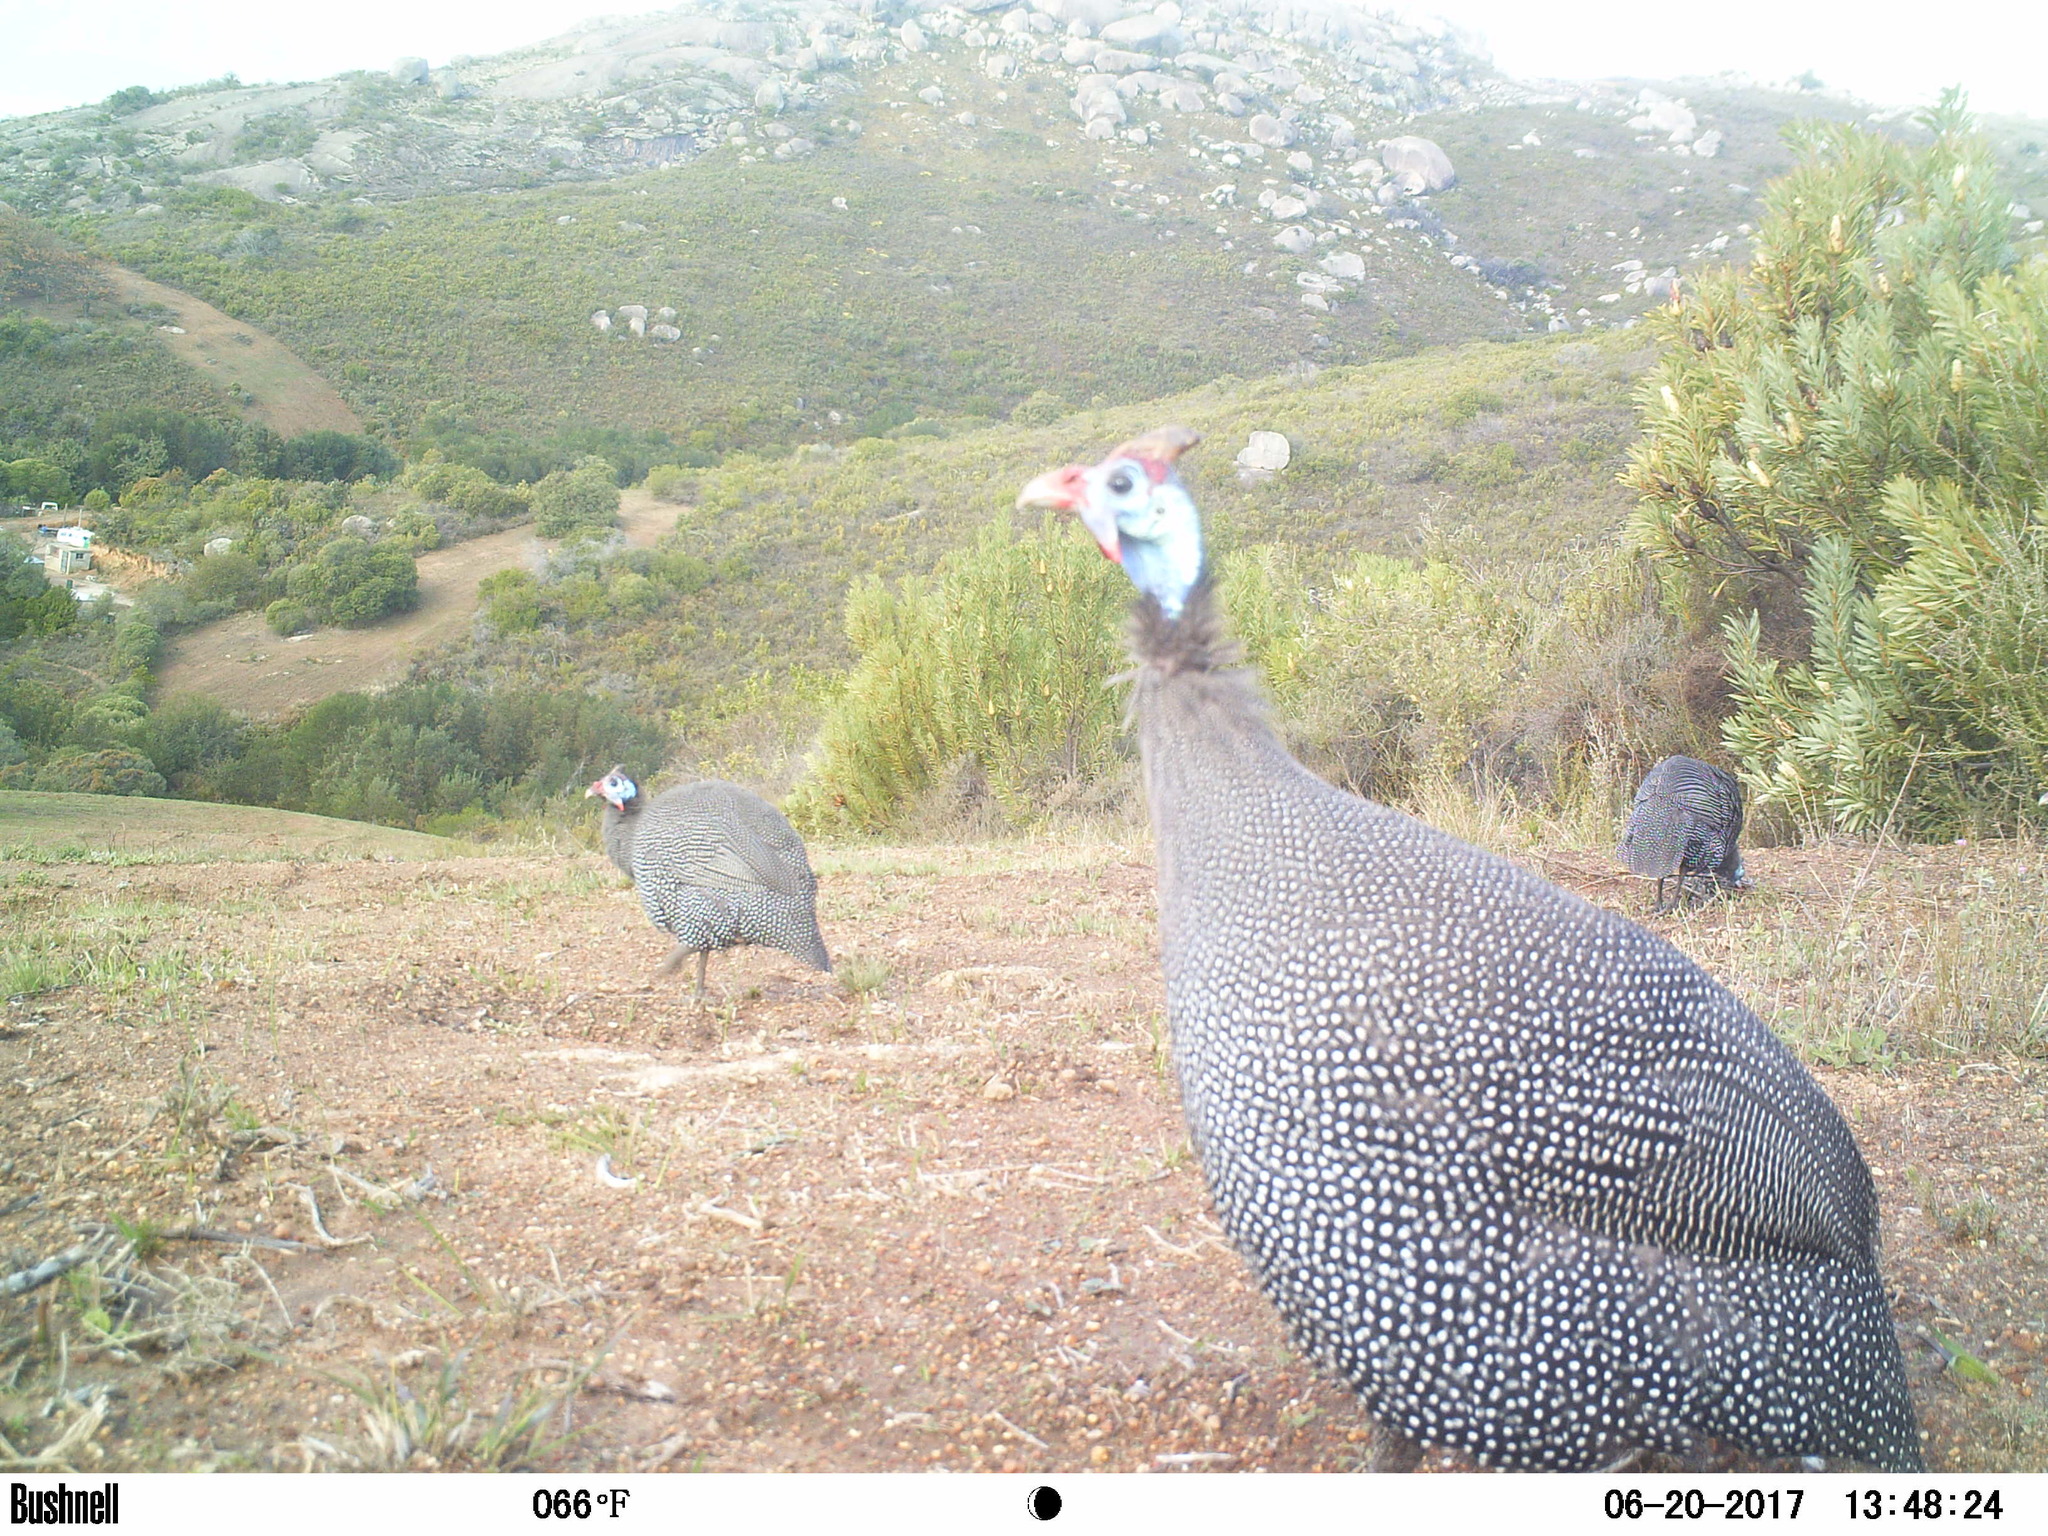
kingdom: Animalia
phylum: Chordata
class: Aves
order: Galliformes
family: Numididae
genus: Numida
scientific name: Numida meleagris
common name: Helmeted guineafowl
